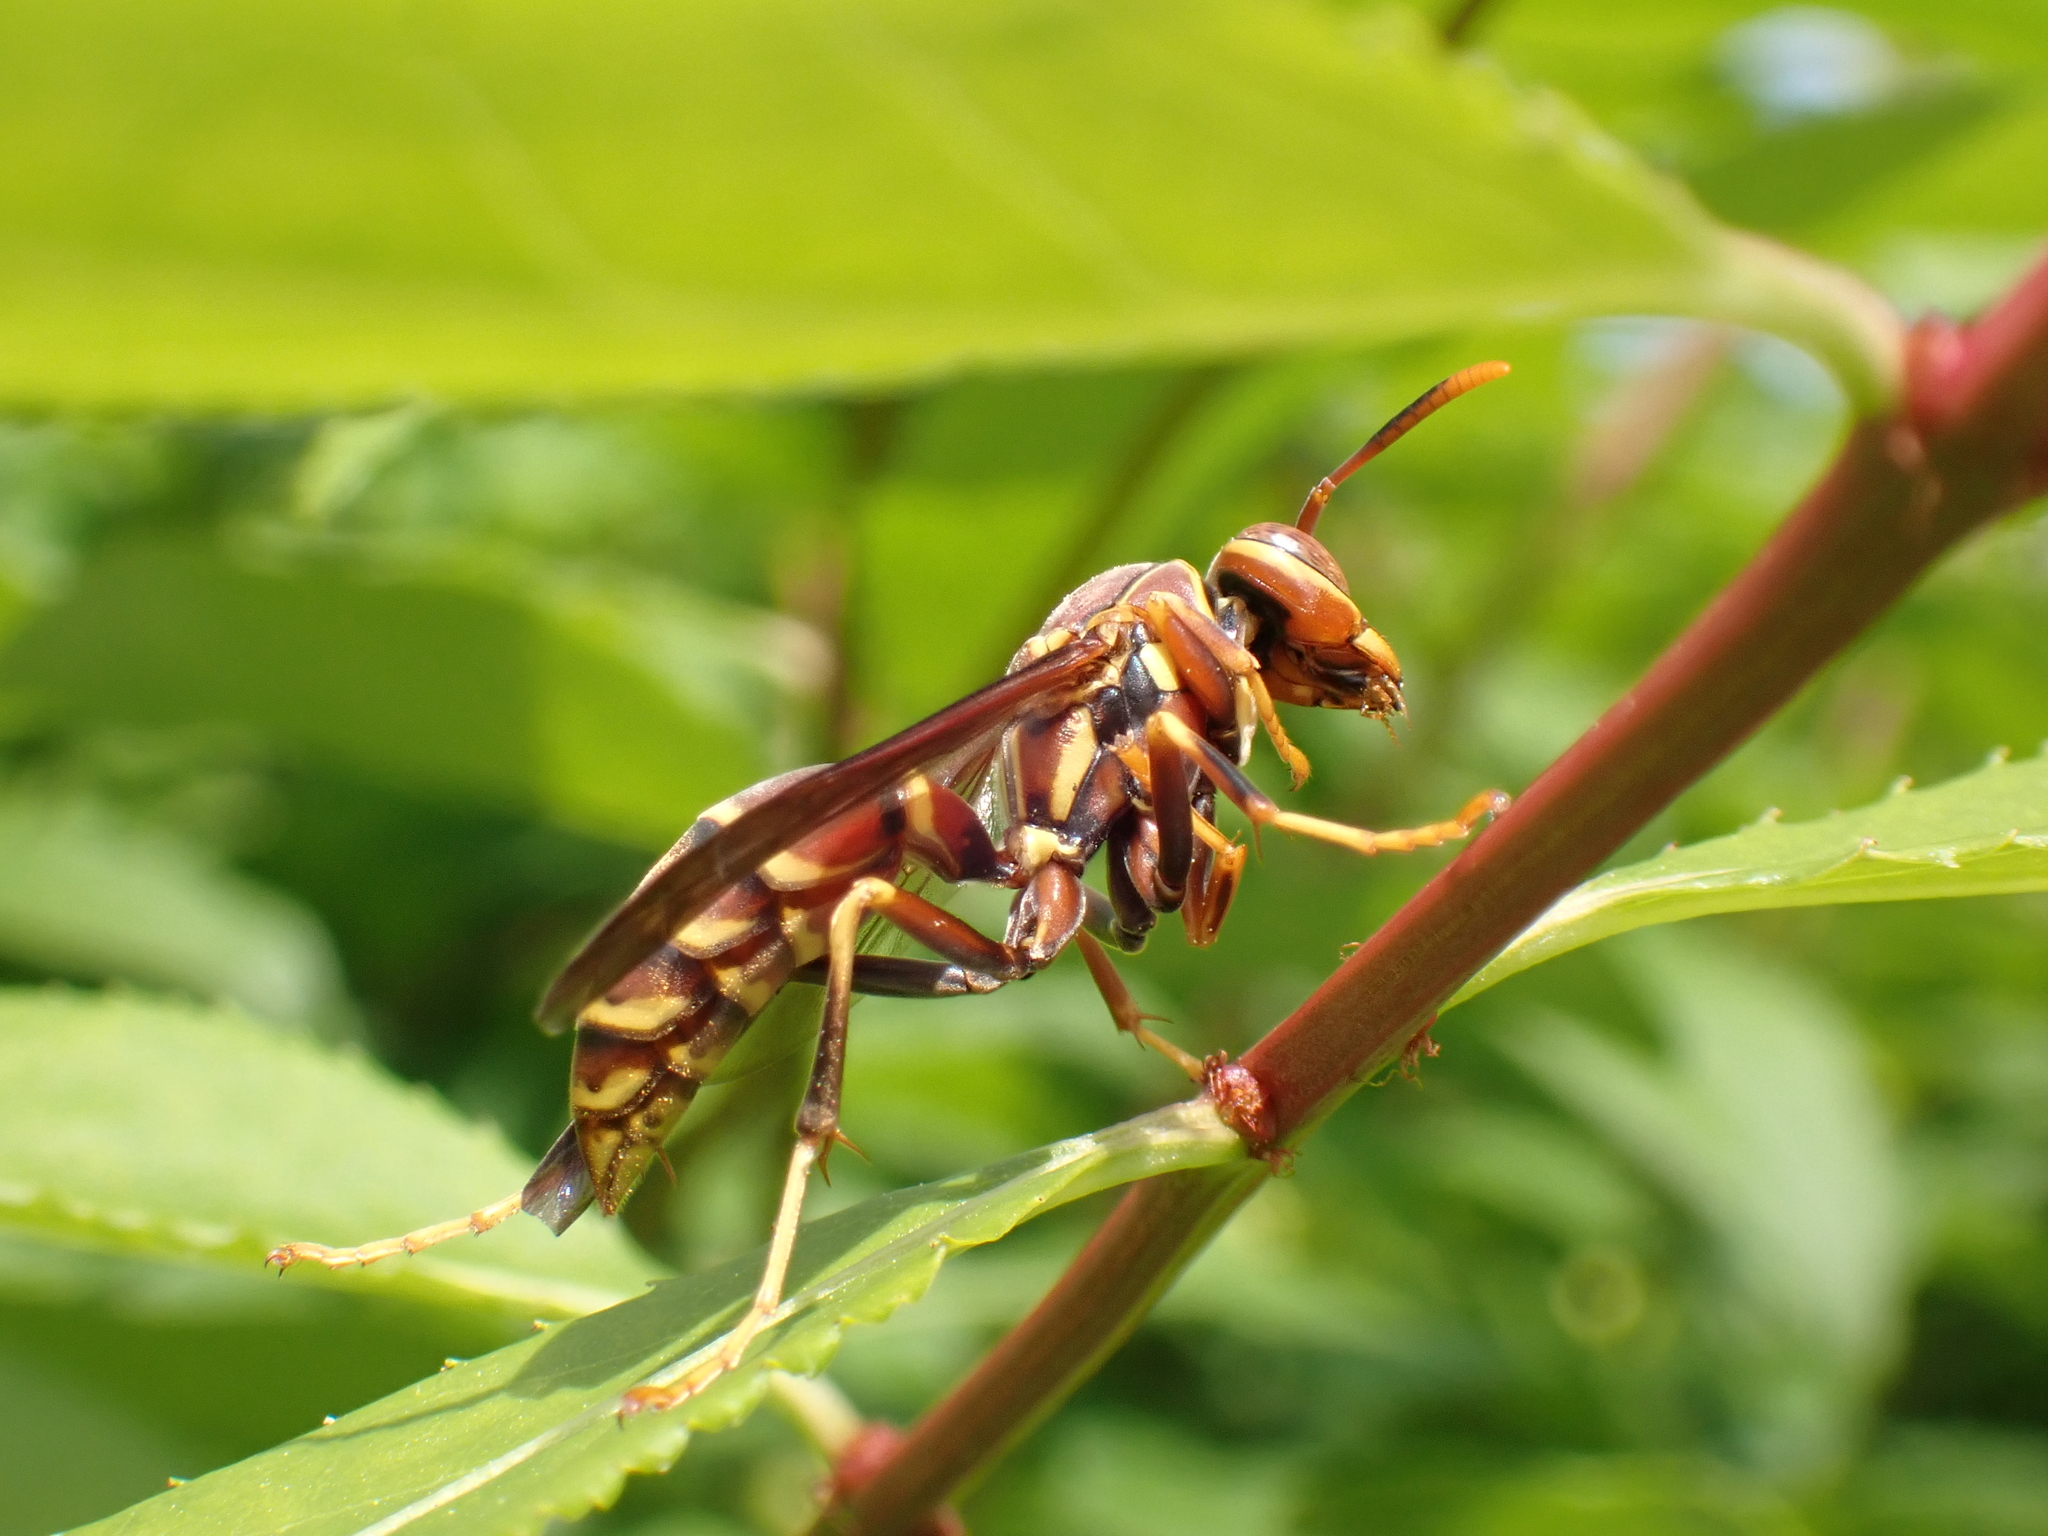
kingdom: Animalia
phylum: Arthropoda
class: Insecta
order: Hymenoptera
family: Eumenidae
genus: Polistes
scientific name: Polistes exclamans
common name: Paper wasp
